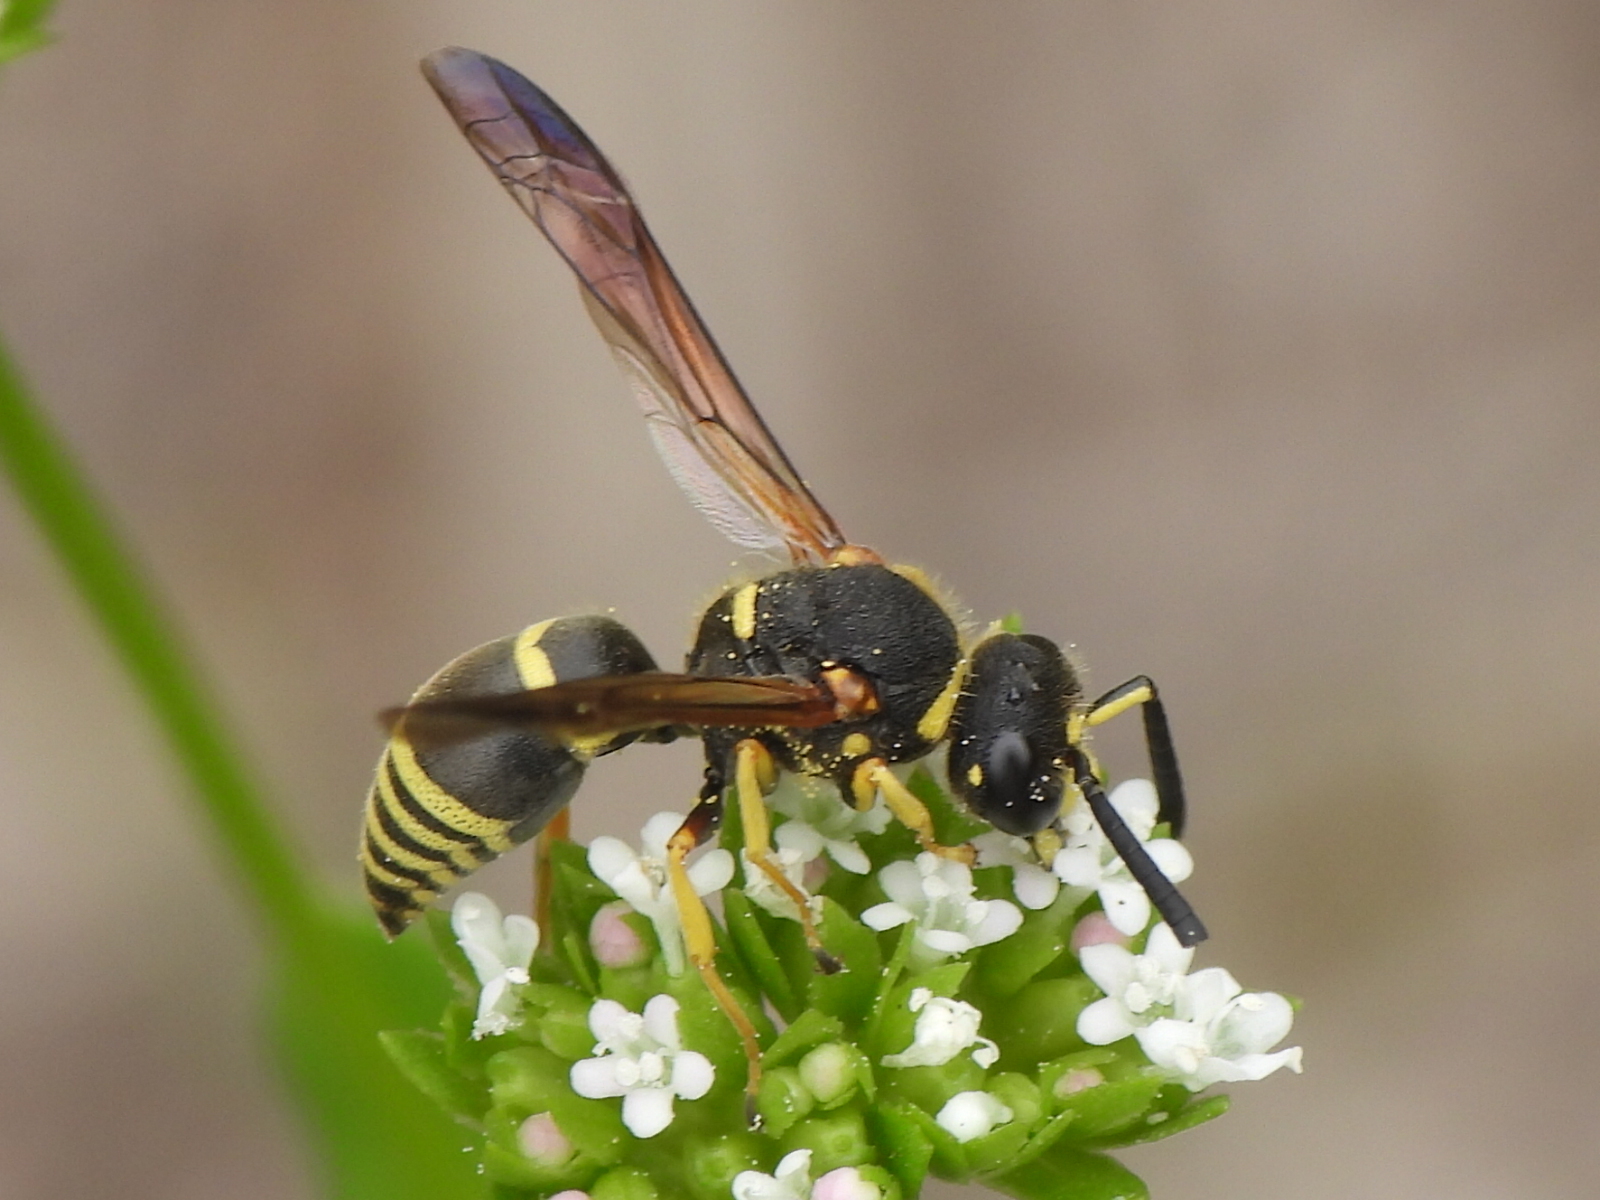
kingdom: Animalia
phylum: Arthropoda
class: Insecta
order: Hymenoptera
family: Eumenidae
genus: Euodynerus
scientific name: Euodynerus foraminatus
